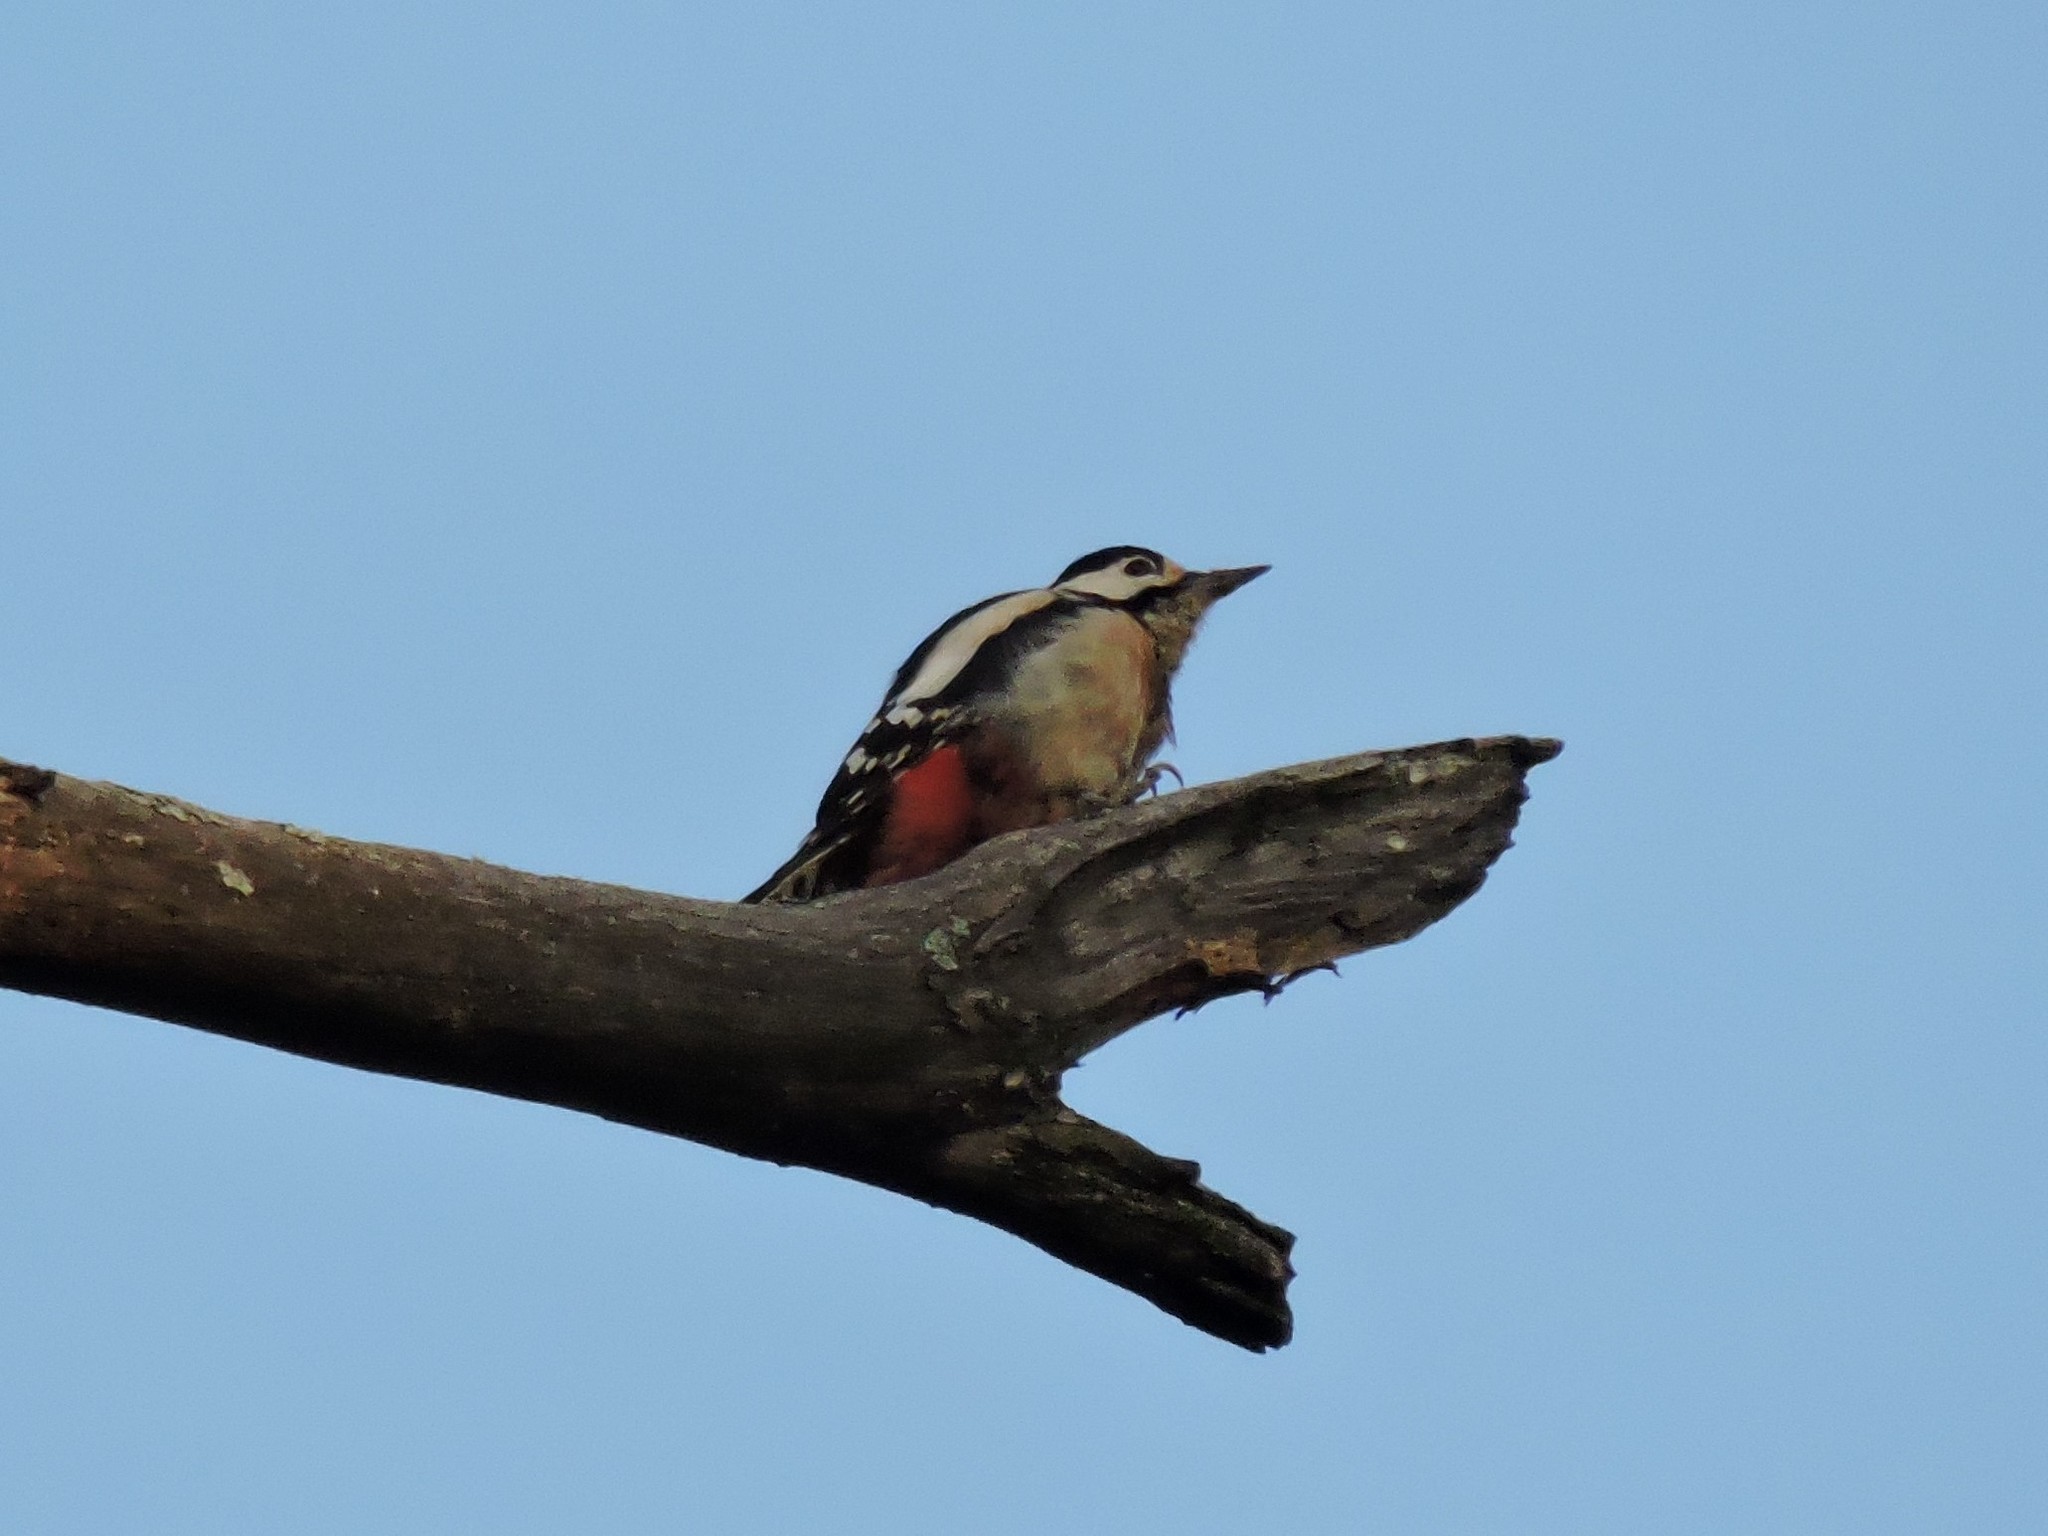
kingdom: Animalia
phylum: Chordata
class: Aves
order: Piciformes
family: Picidae
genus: Dendrocopos
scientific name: Dendrocopos major
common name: Great spotted woodpecker
